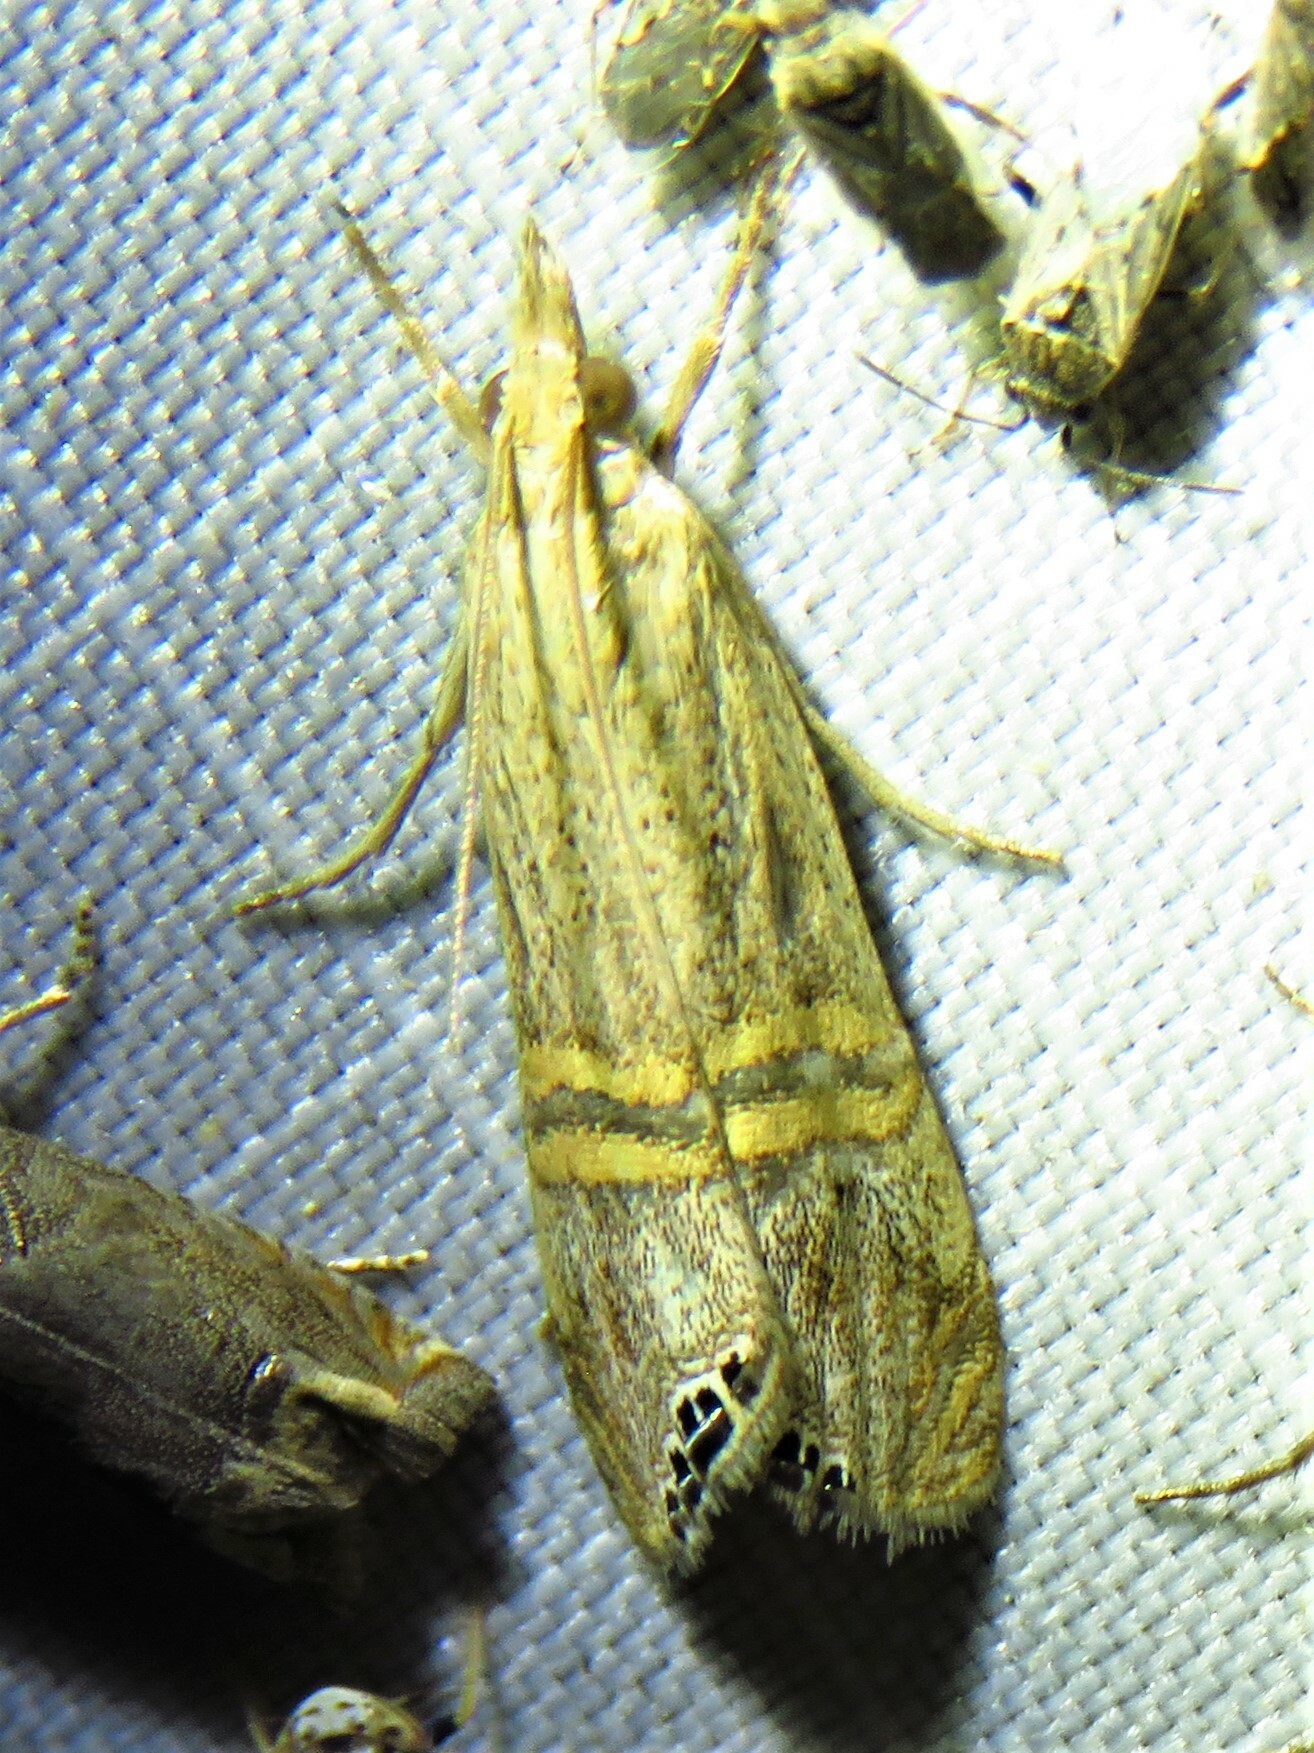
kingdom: Animalia
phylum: Arthropoda
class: Insecta
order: Lepidoptera
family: Crambidae
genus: Euchromius
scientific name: Euchromius ocellea
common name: Necklace veneer moth
